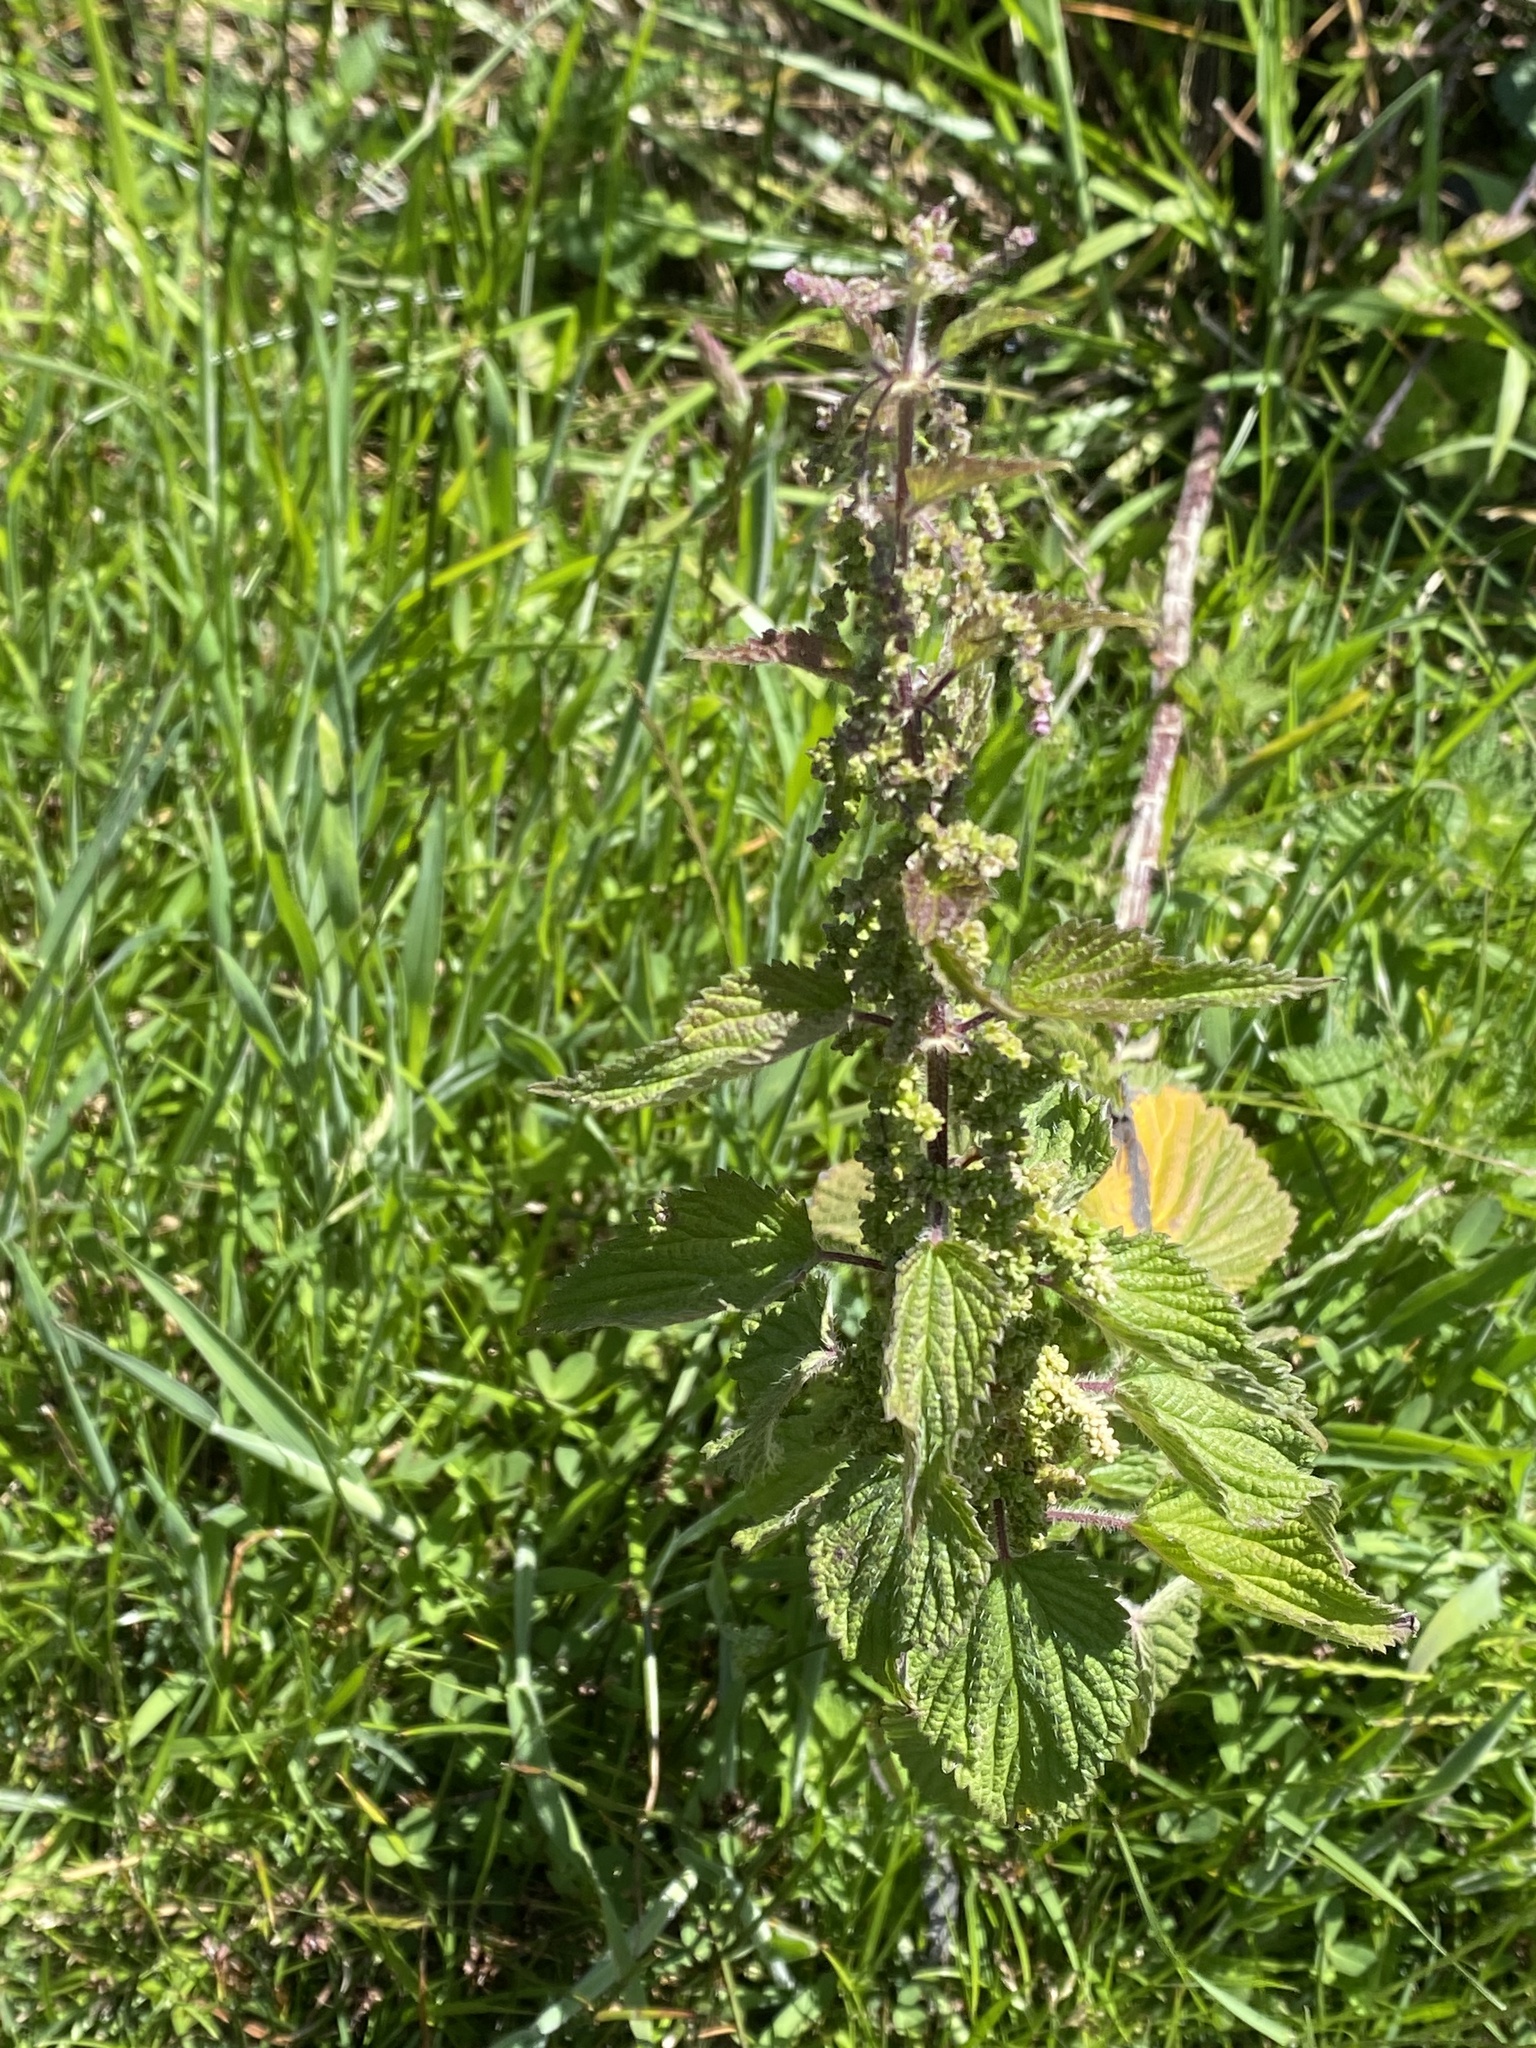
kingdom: Plantae
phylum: Tracheophyta
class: Magnoliopsida
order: Rosales
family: Urticaceae
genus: Urtica
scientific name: Urtica dioica
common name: Common nettle
